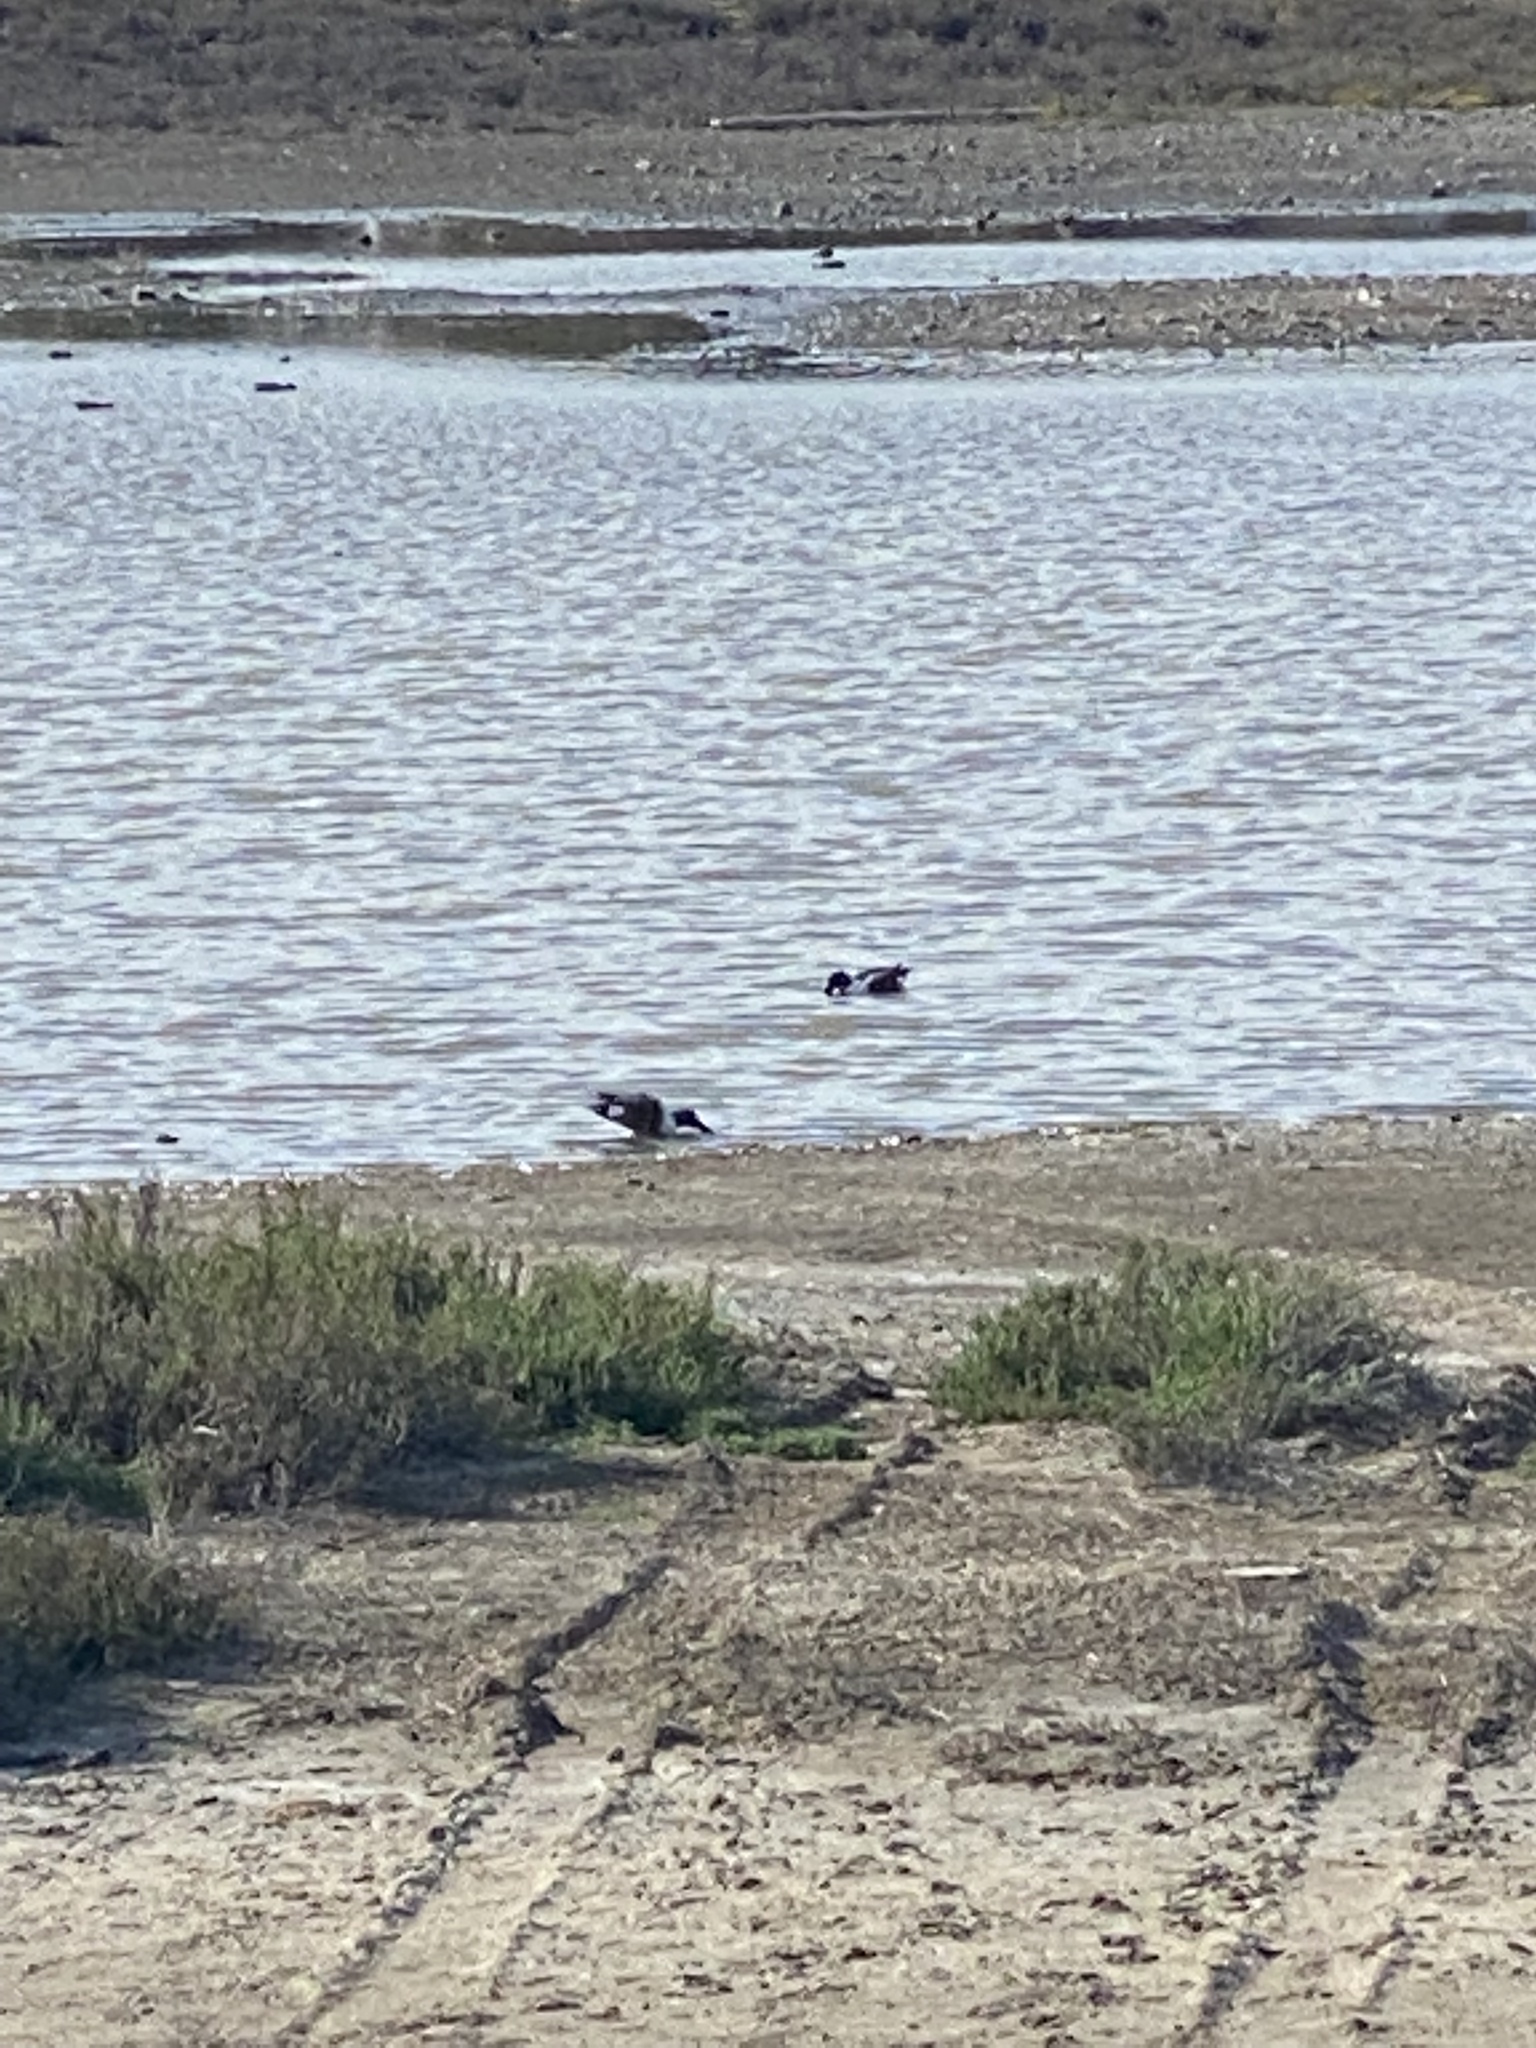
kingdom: Animalia
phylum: Chordata
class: Aves
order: Anseriformes
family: Anatidae
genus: Spatula
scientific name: Spatula clypeata
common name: Northern shoveler
